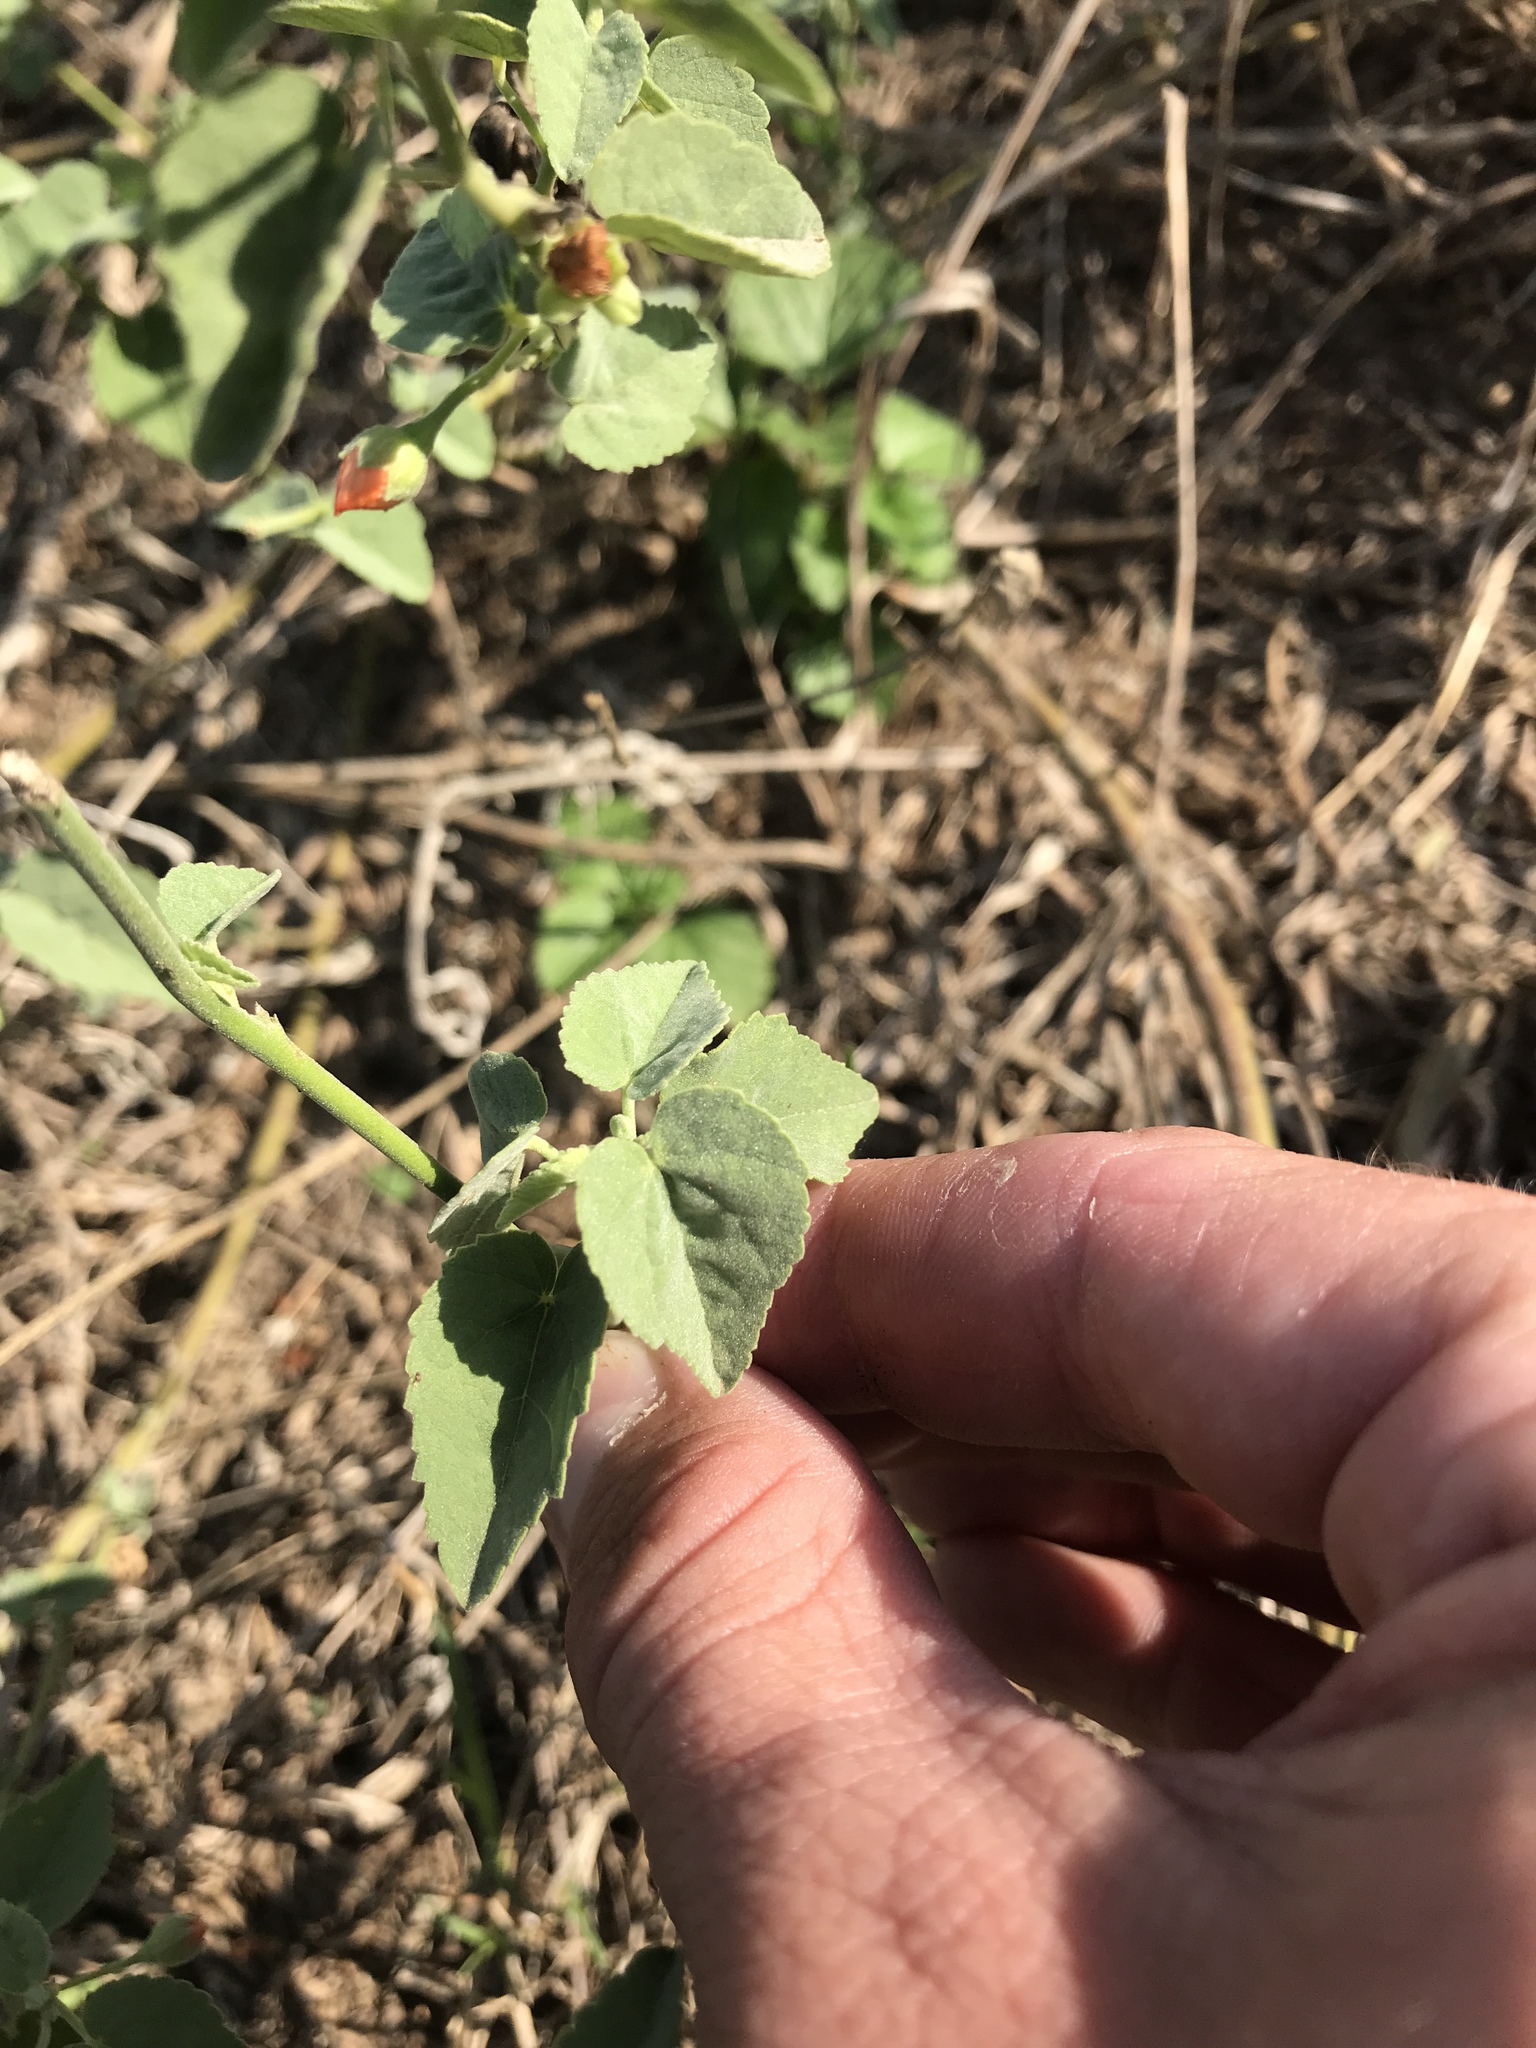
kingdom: Plantae
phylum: Tracheophyta
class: Magnoliopsida
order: Malvales
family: Malvaceae
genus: Abutilon
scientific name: Abutilon fruticosum
